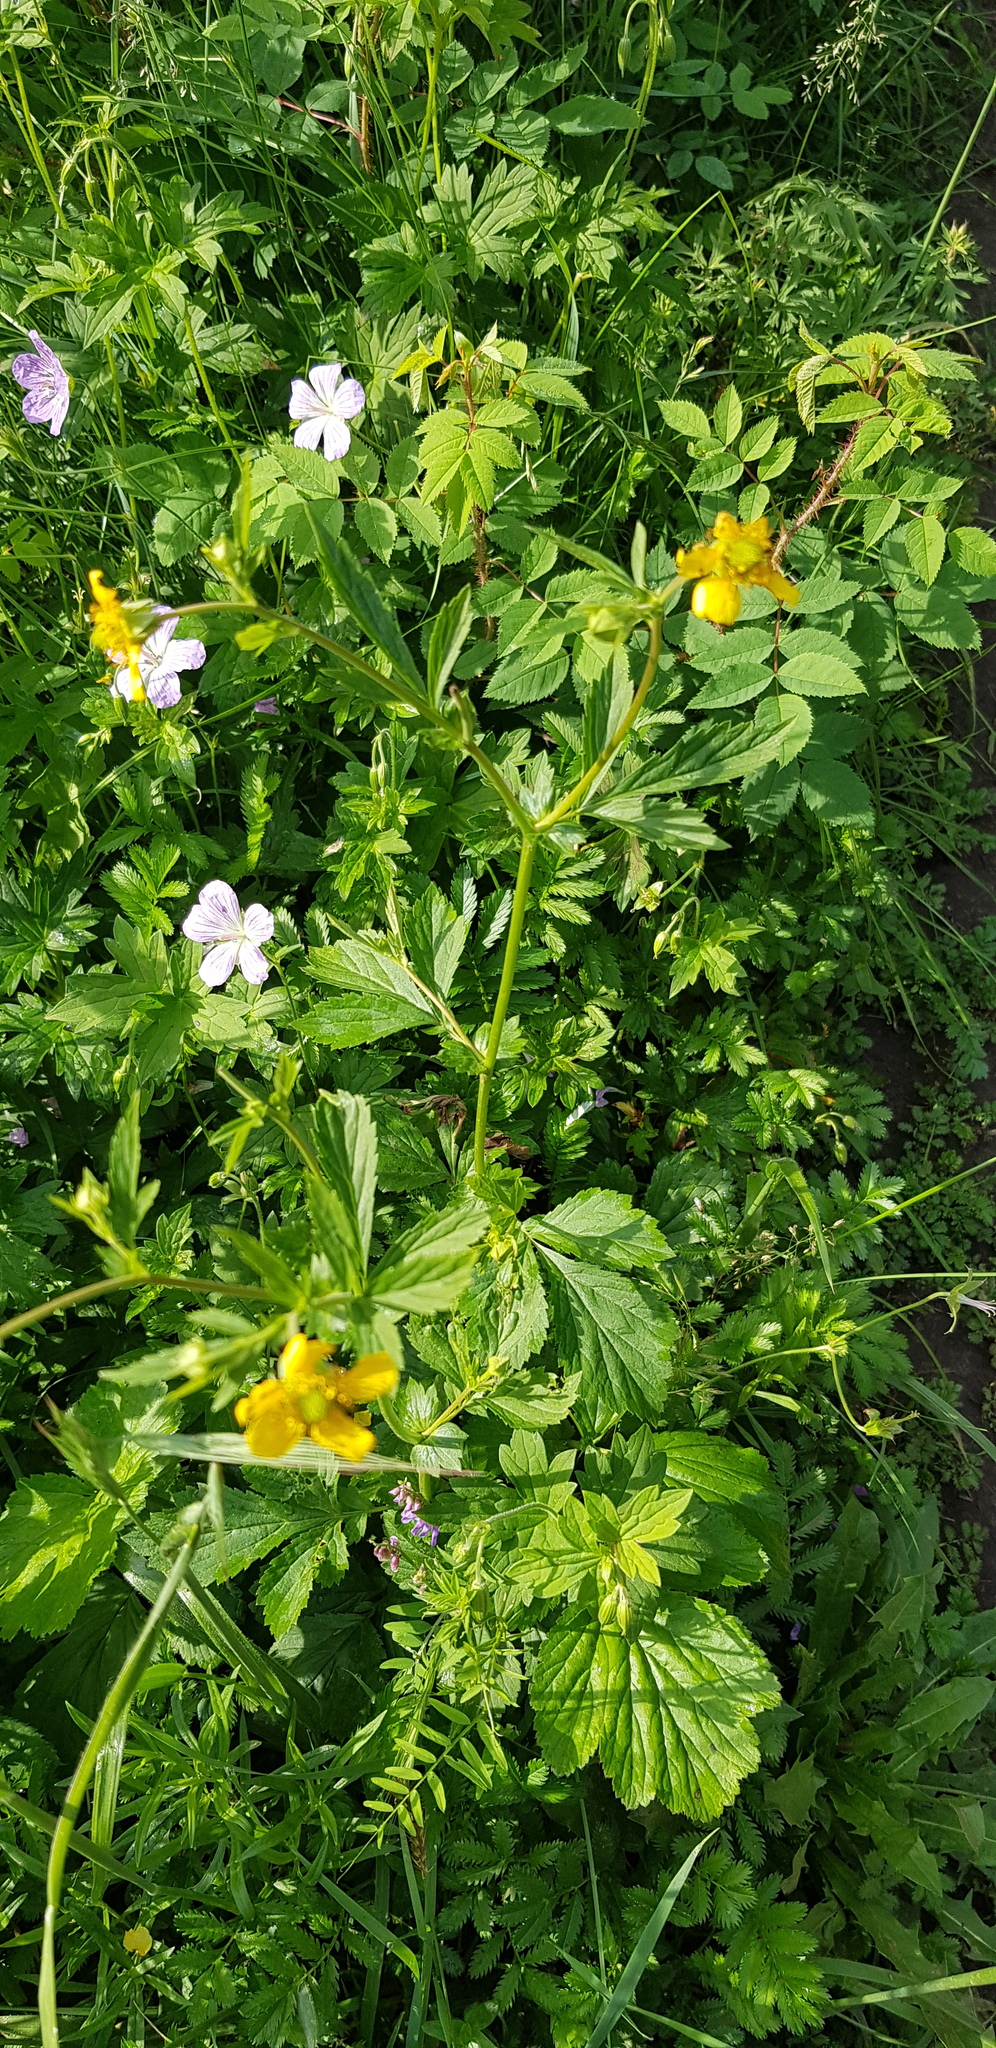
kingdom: Plantae
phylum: Tracheophyta
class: Magnoliopsida
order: Rosales
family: Rosaceae
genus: Geum
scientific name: Geum aleppicum
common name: Yellow avens
